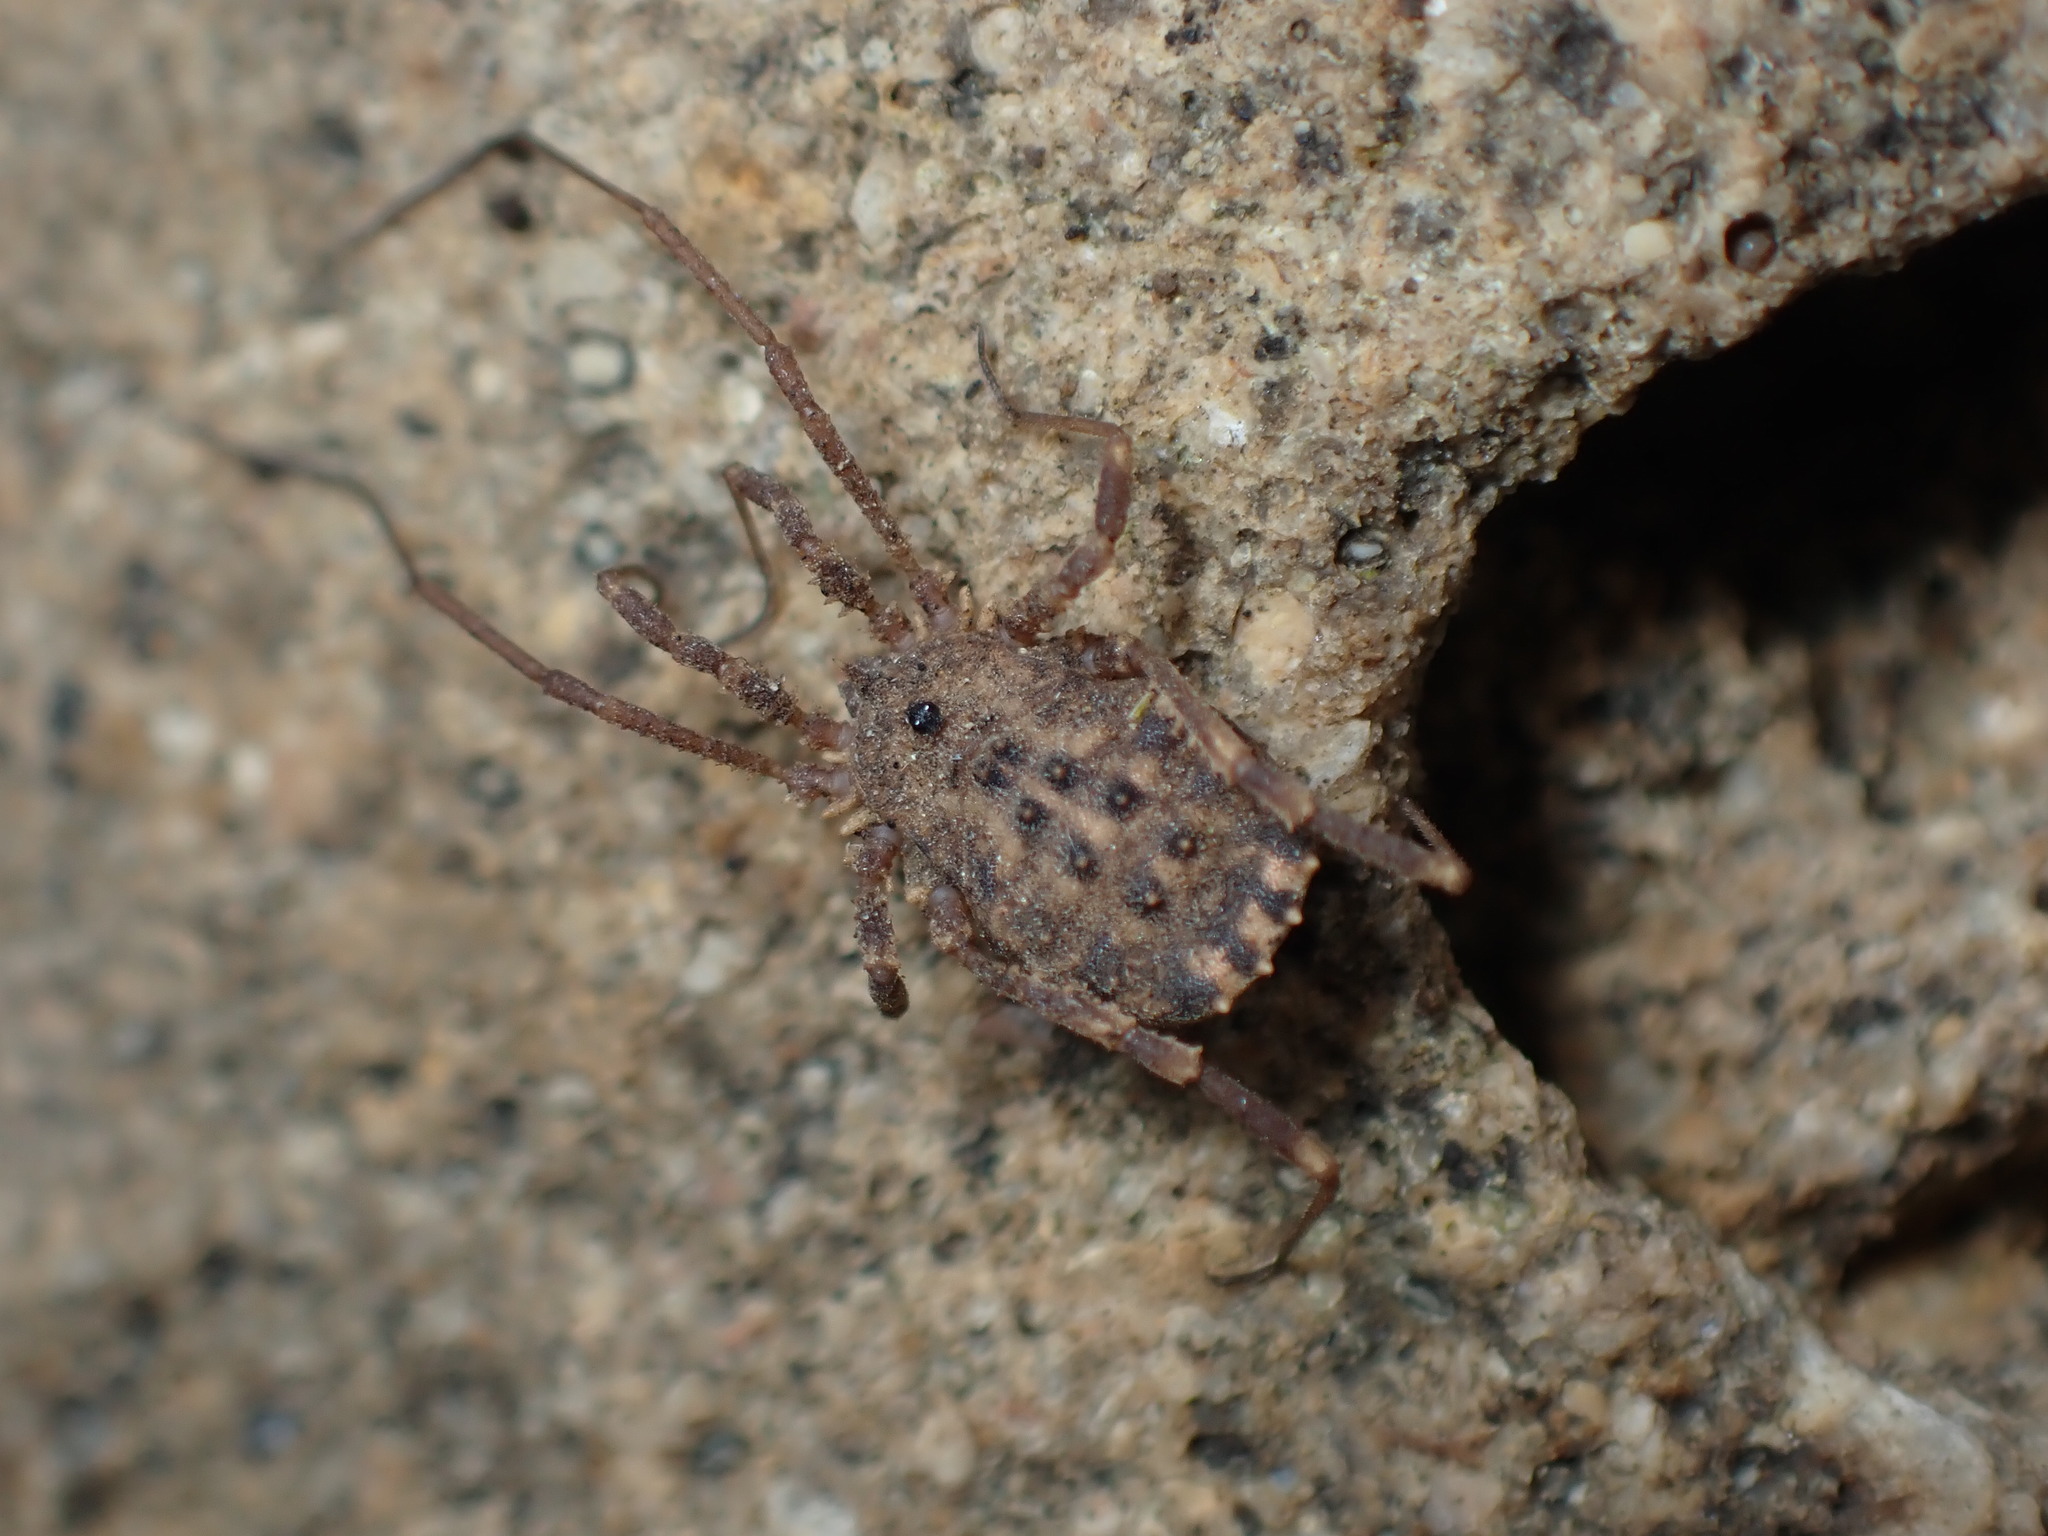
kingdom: Animalia
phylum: Arthropoda
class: Arachnida
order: Opiliones
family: Sclerosomatidae
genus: Homalenotus
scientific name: Homalenotus quadridentatus
